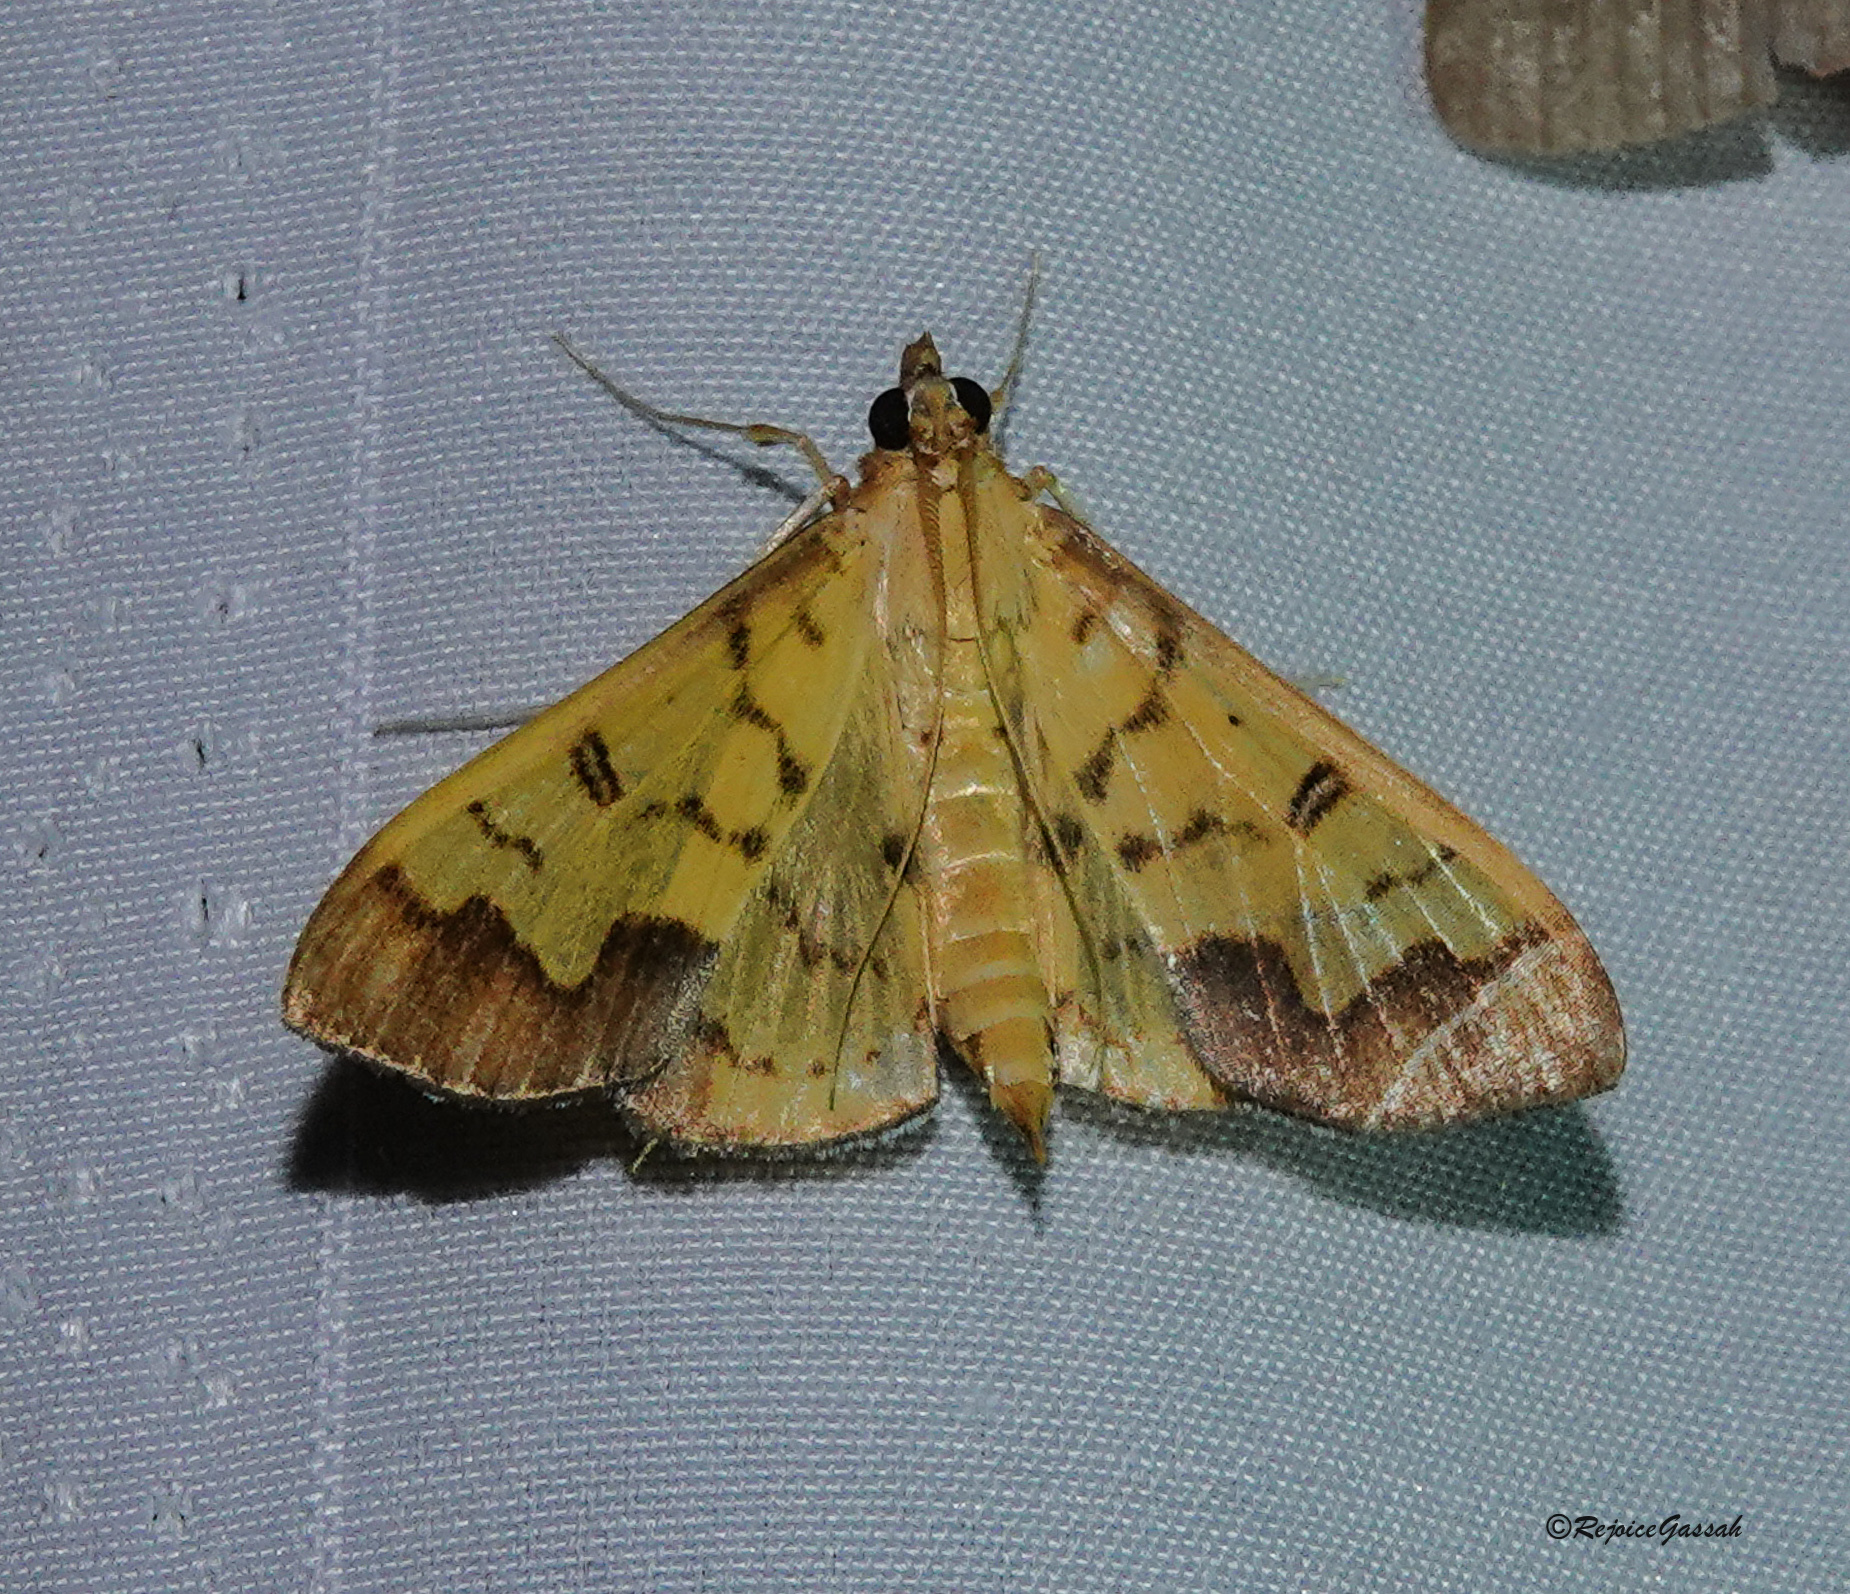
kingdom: Animalia
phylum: Arthropoda
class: Insecta
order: Lepidoptera
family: Crambidae
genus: Meroctena
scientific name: Meroctena tullalis
